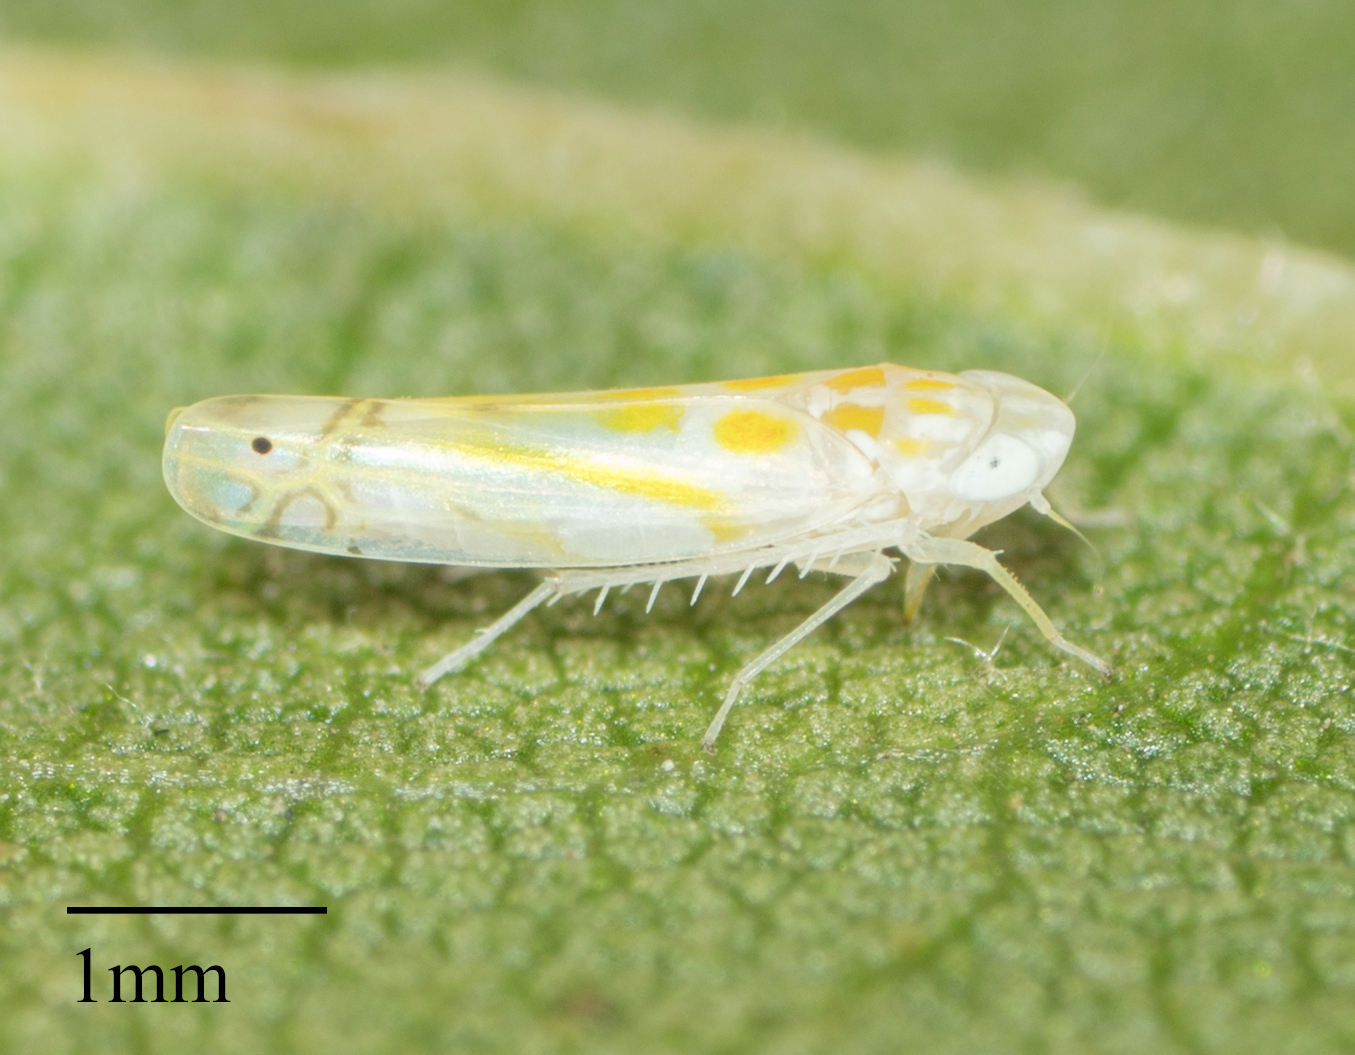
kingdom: Animalia
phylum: Arthropoda
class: Insecta
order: Hemiptera
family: Cicadellidae
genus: Alconeura
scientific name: Alconeura quadrimaculata
